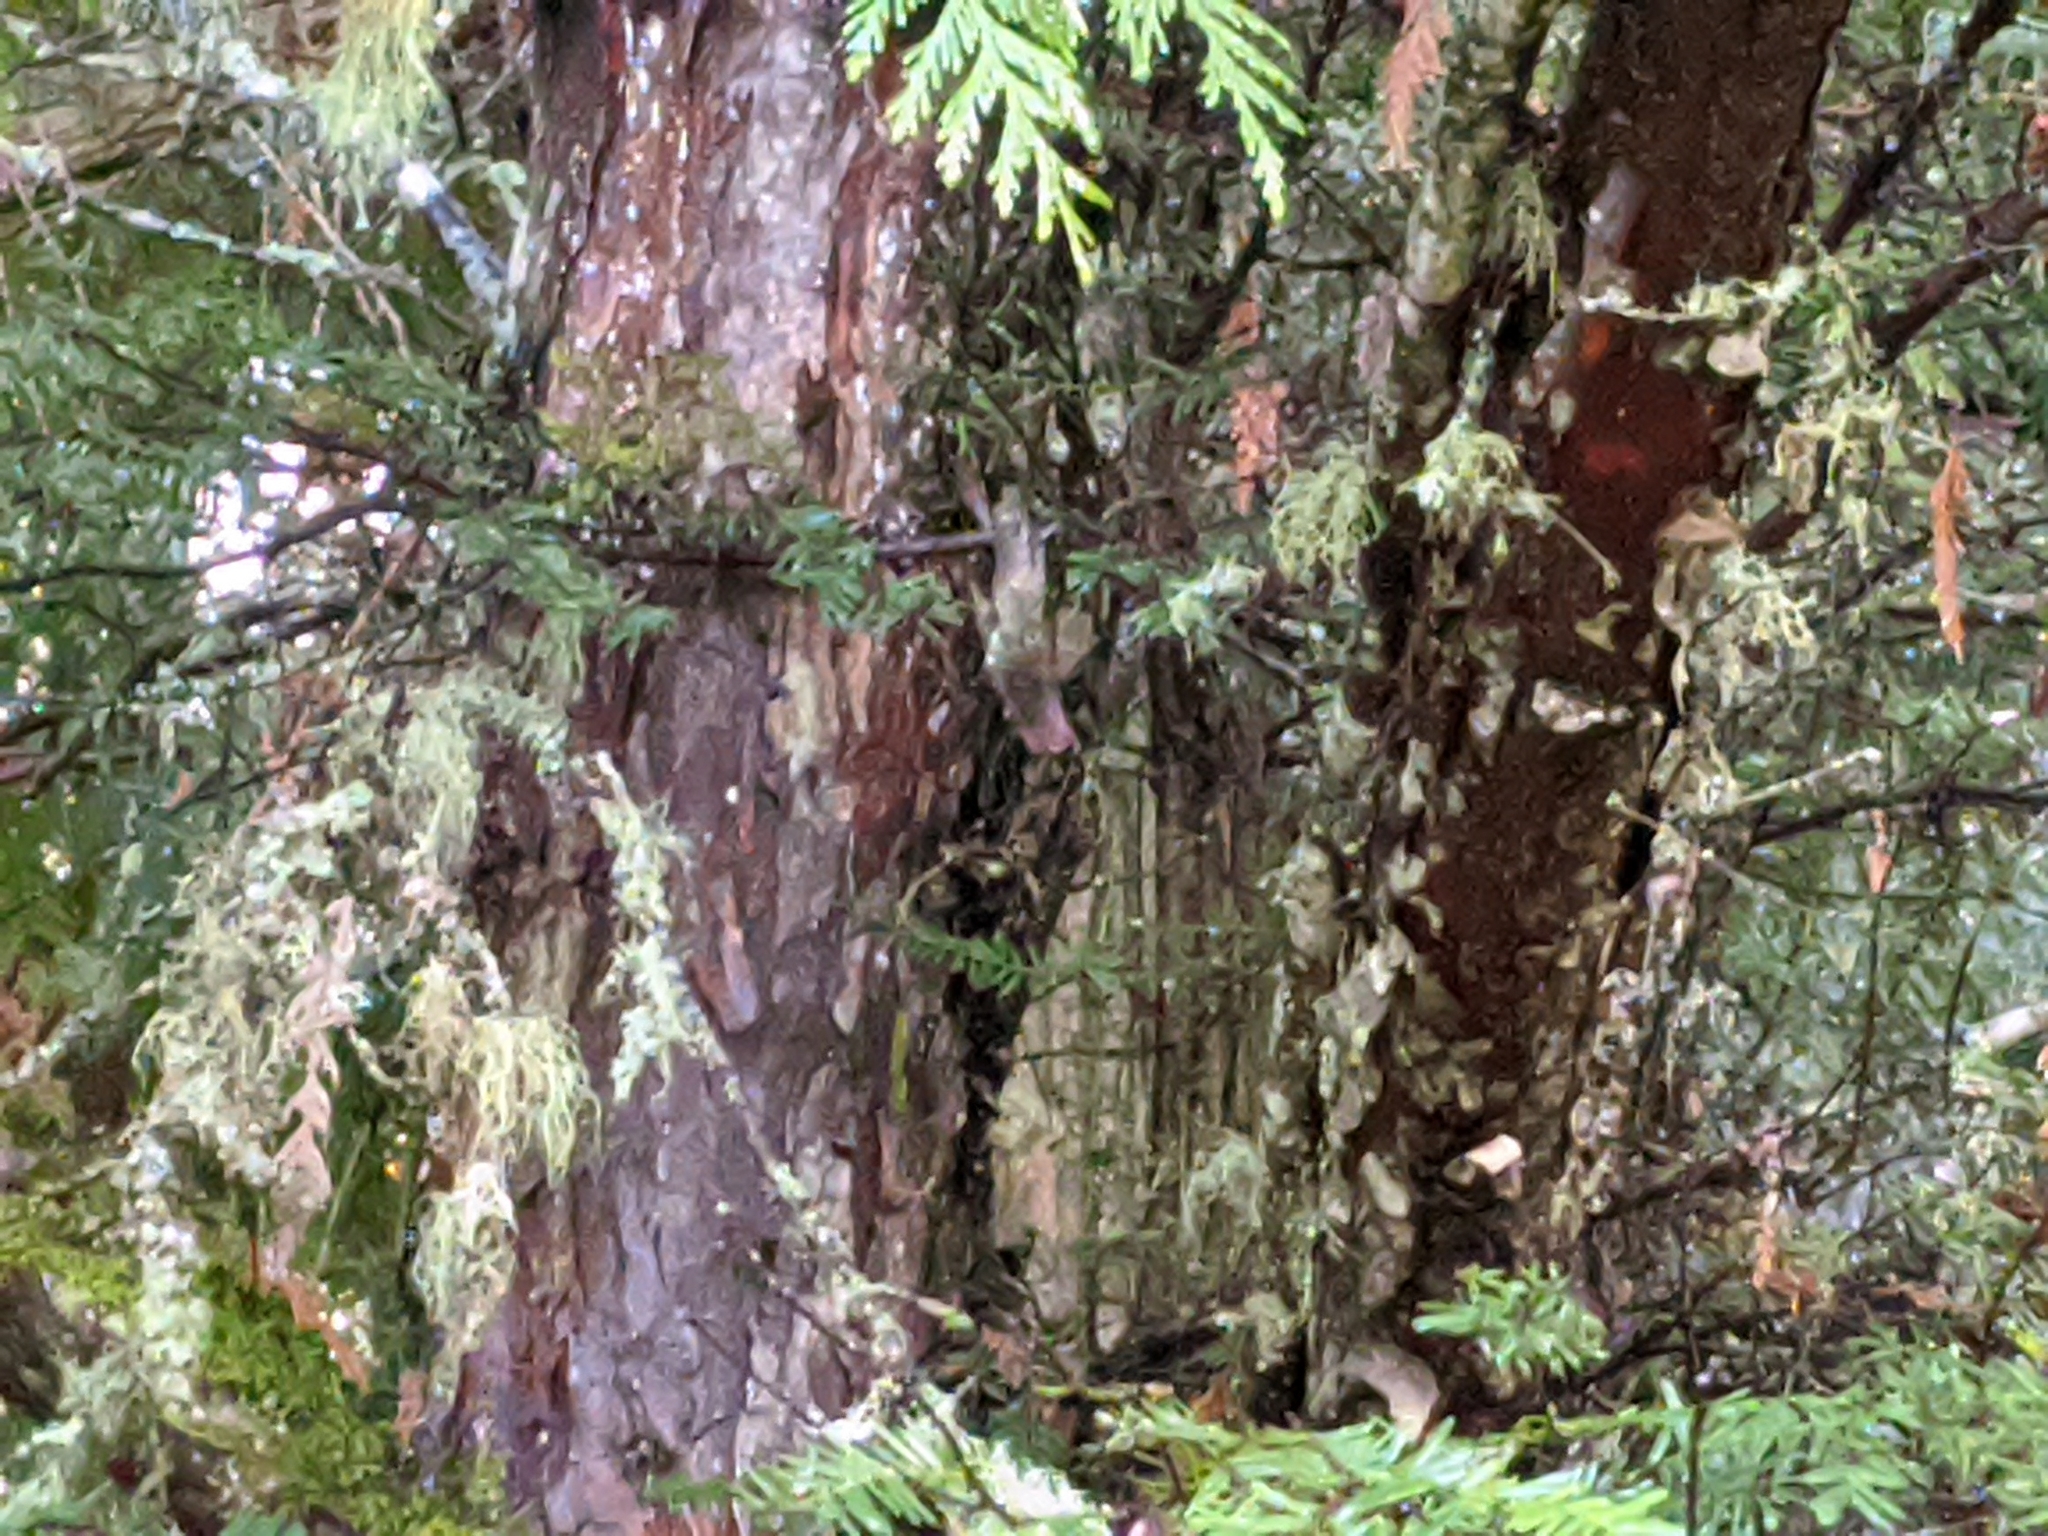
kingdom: Plantae
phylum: Tracheophyta
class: Pinopsida
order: Pinales
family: Taxaceae
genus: Taxus
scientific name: Taxus brevifolia
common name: Pacific yew
